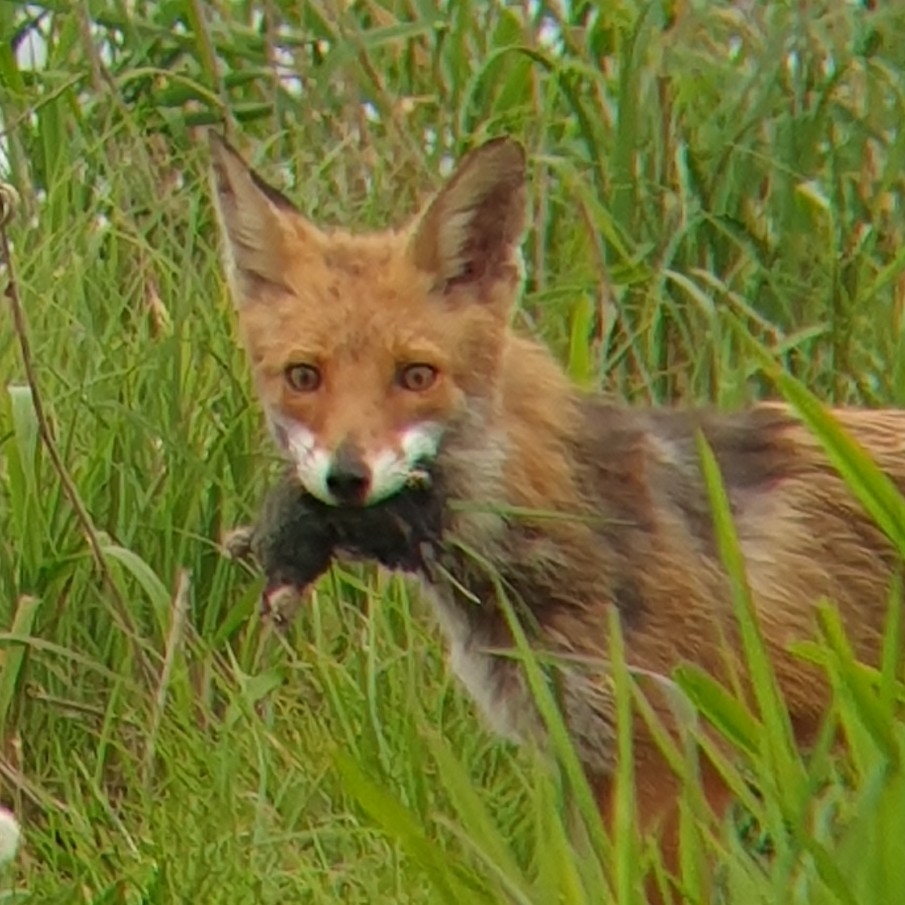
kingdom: Animalia
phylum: Chordata
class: Mammalia
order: Soricomorpha
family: Talpidae
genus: Talpa
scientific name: Talpa europaea
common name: European mole
